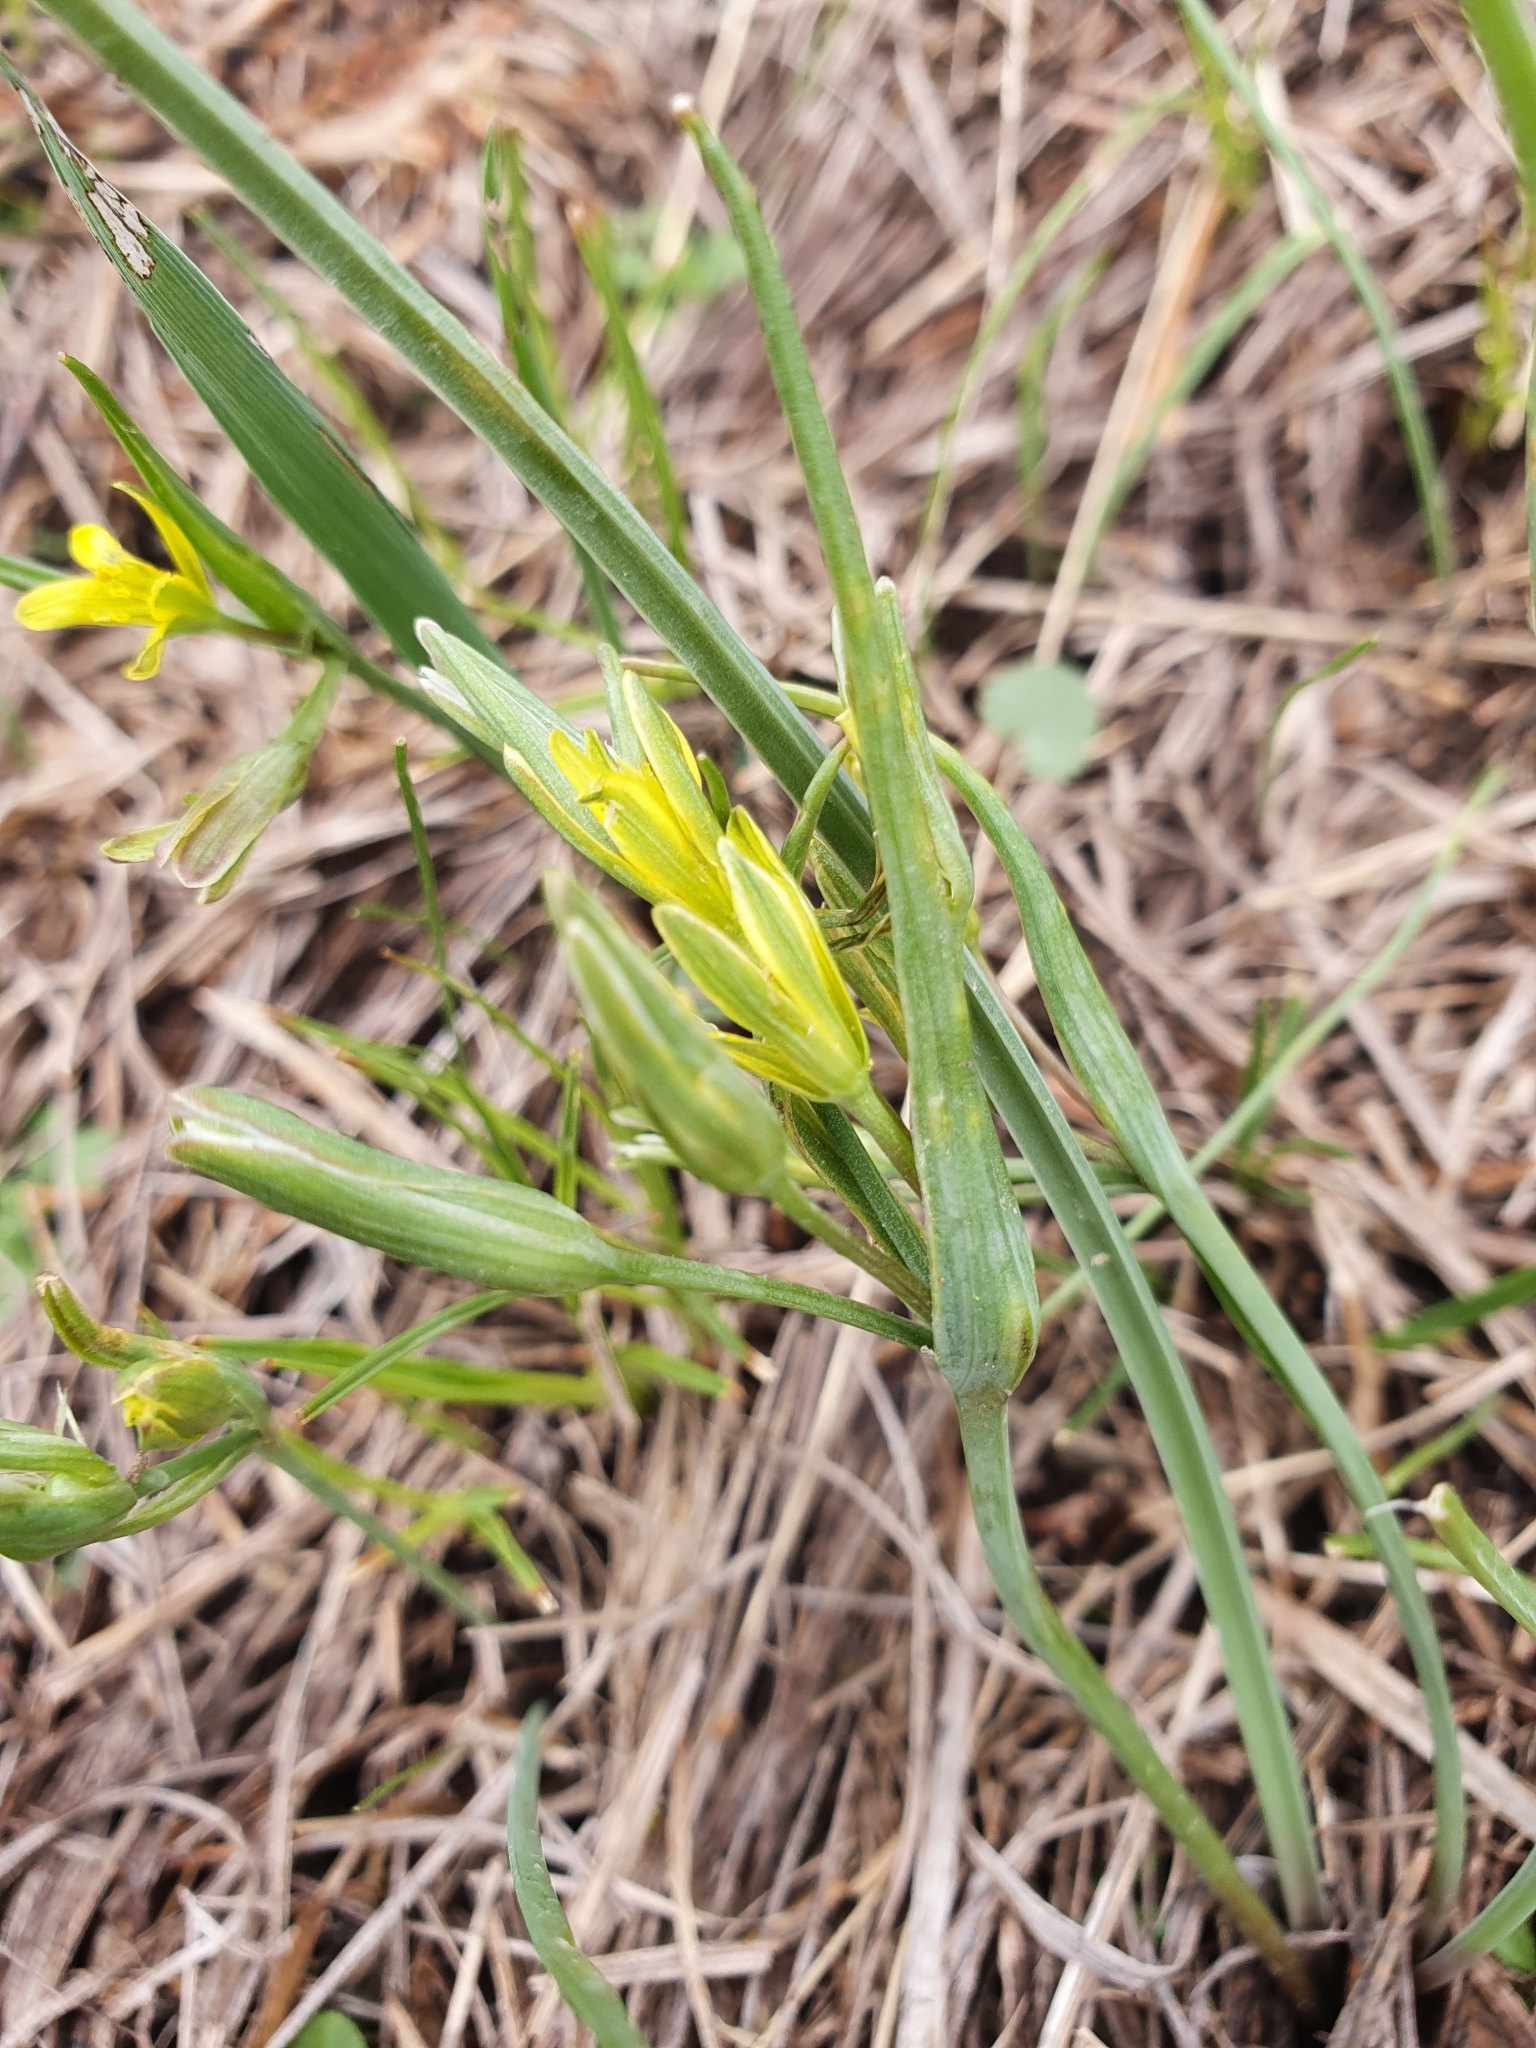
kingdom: Plantae
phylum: Tracheophyta
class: Liliopsida
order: Liliales
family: Liliaceae
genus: Gagea
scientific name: Gagea pusilla
